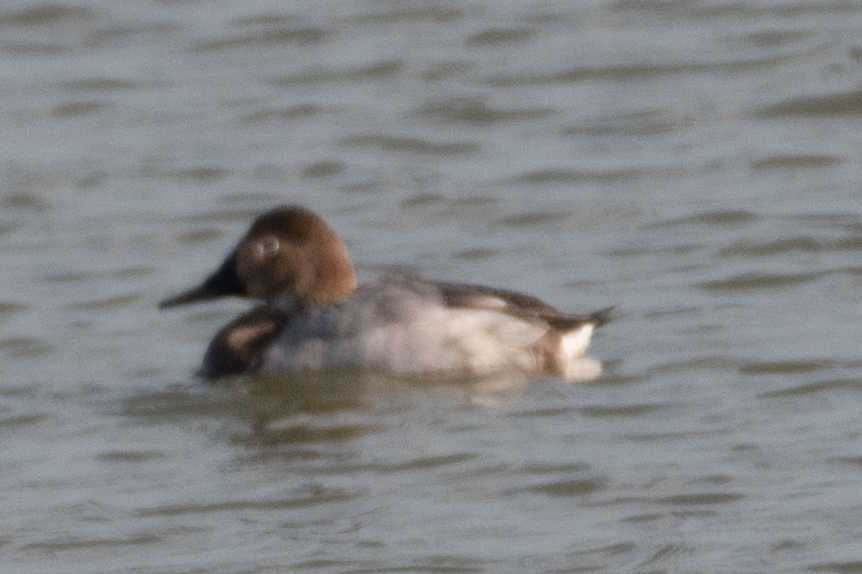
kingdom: Animalia
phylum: Chordata
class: Aves
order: Anseriformes
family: Anatidae
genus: Aythya
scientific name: Aythya valisineria
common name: Canvasback
